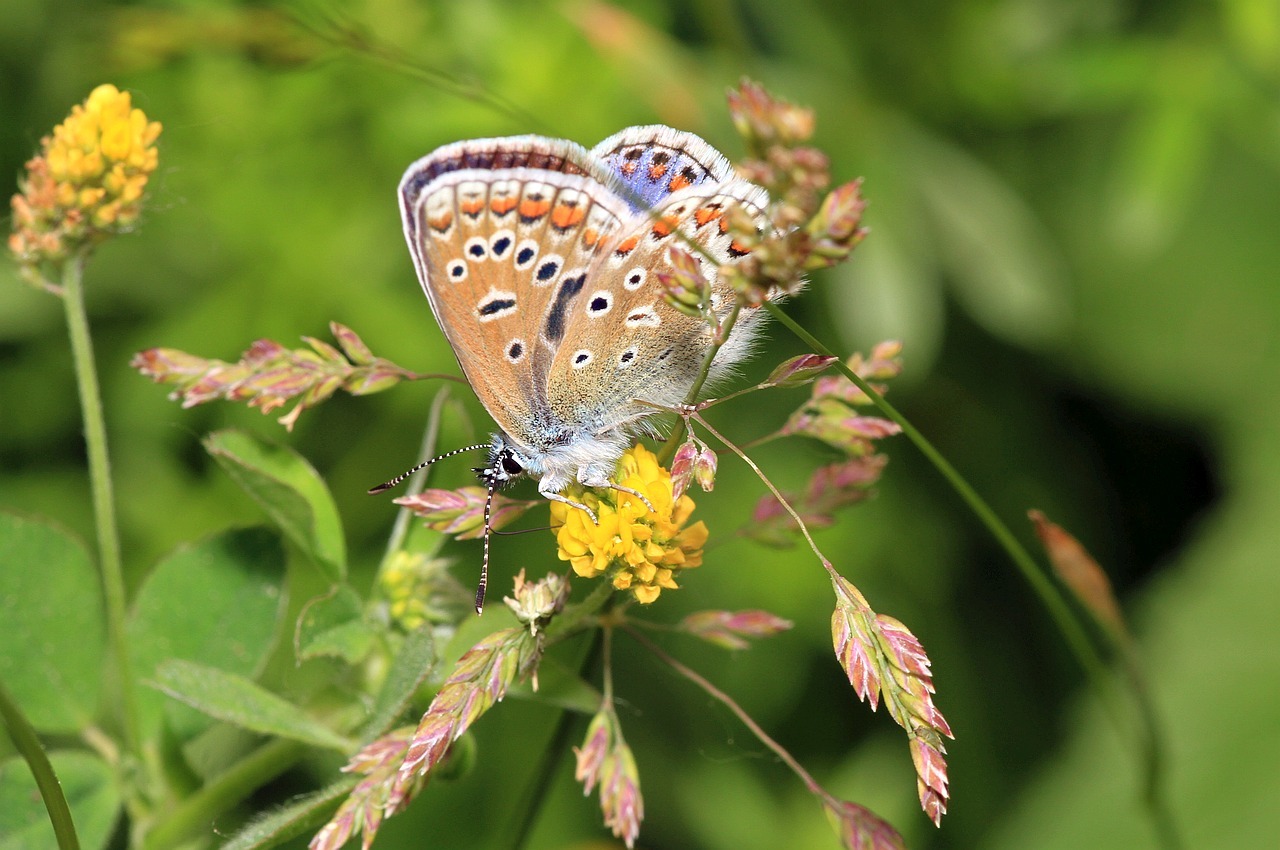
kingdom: Animalia
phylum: Arthropoda
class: Insecta
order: Lepidoptera
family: Lycaenidae
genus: Polyommatus
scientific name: Polyommatus icarus
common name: Common blue
